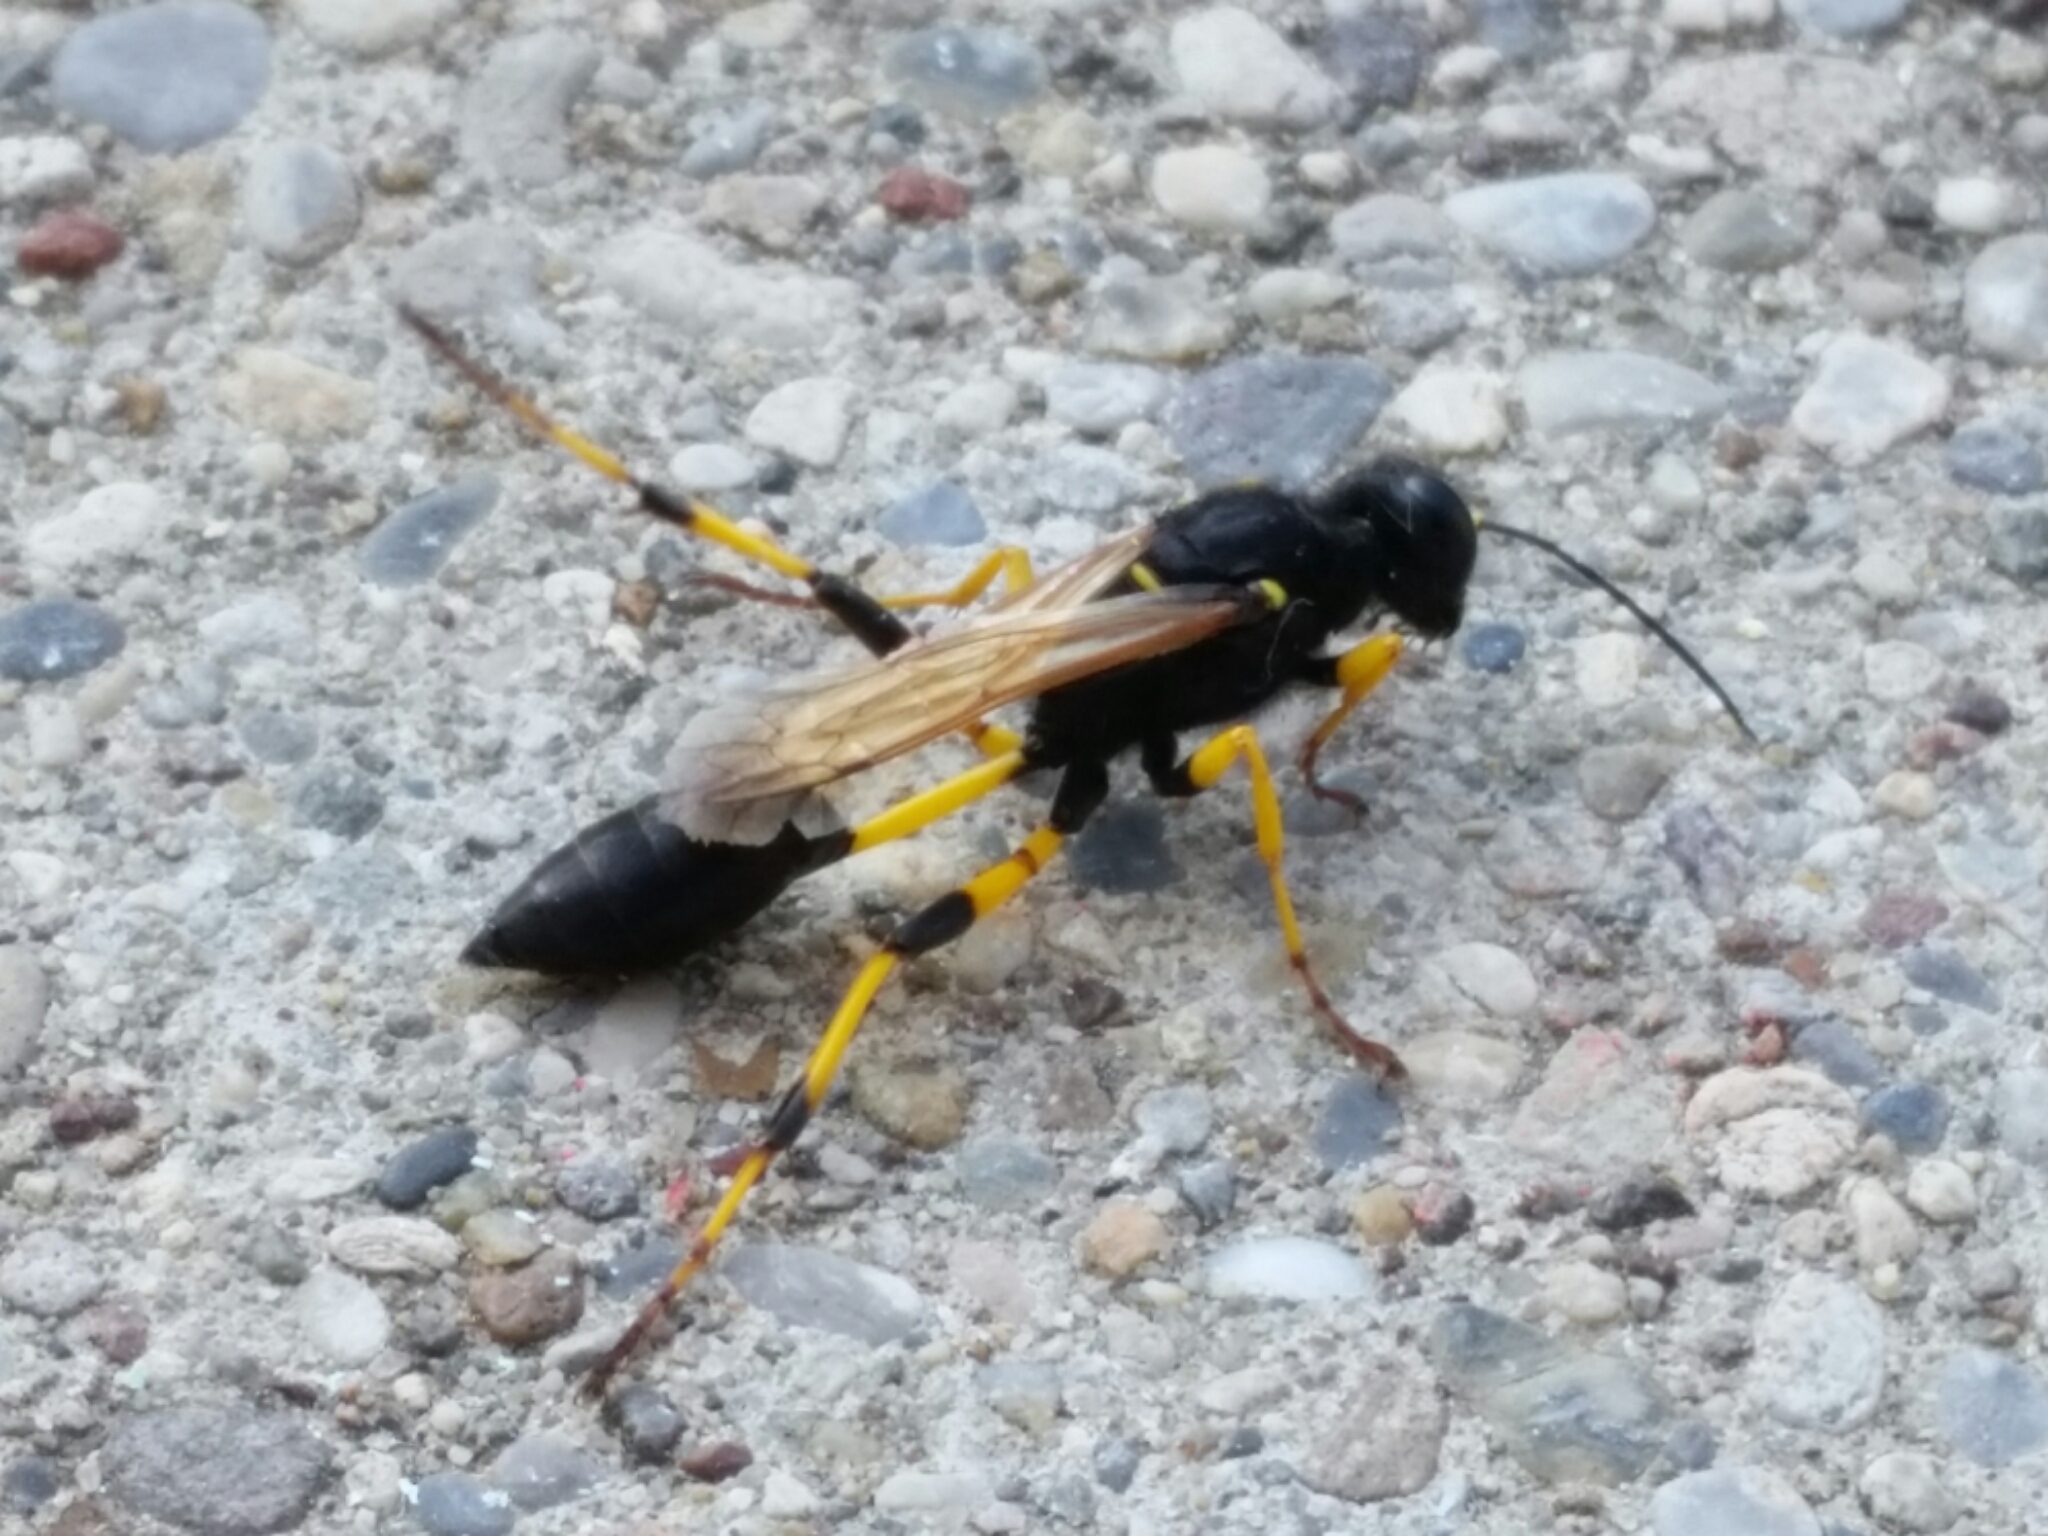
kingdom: Animalia
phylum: Arthropoda
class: Insecta
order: Hymenoptera
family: Sphecidae
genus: Sceliphron
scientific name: Sceliphron destillatorium
